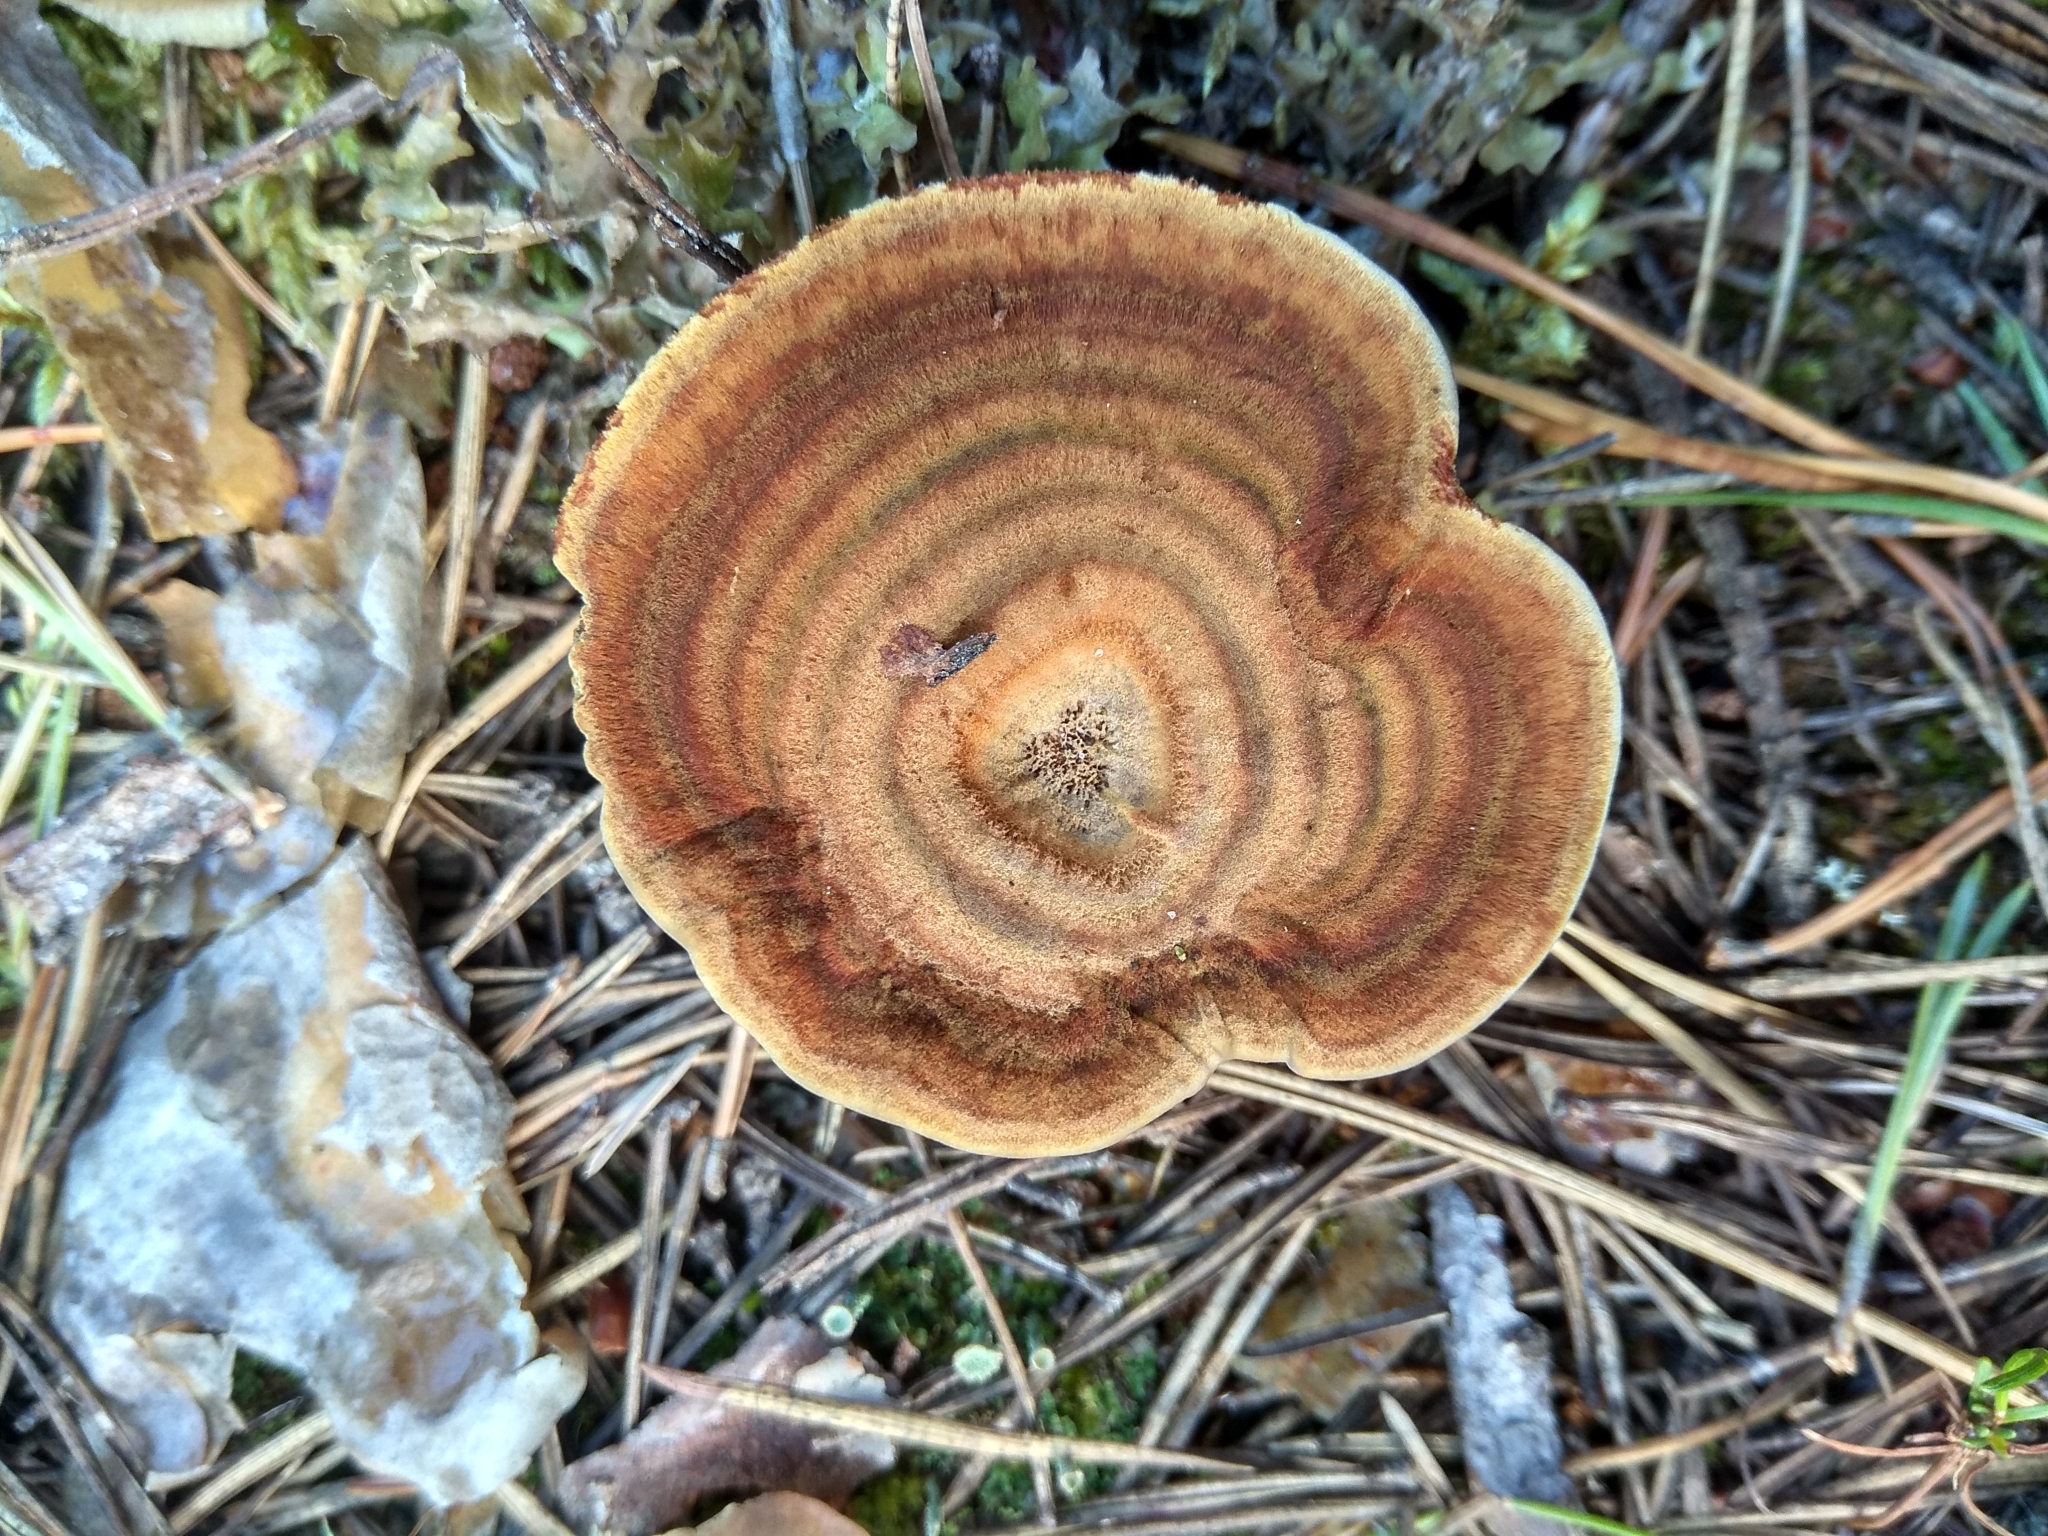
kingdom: Fungi
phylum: Basidiomycota
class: Agaricomycetes
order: Hymenochaetales
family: Hymenochaetaceae
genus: Coltricia
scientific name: Coltricia perennis
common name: Tiger's eye
